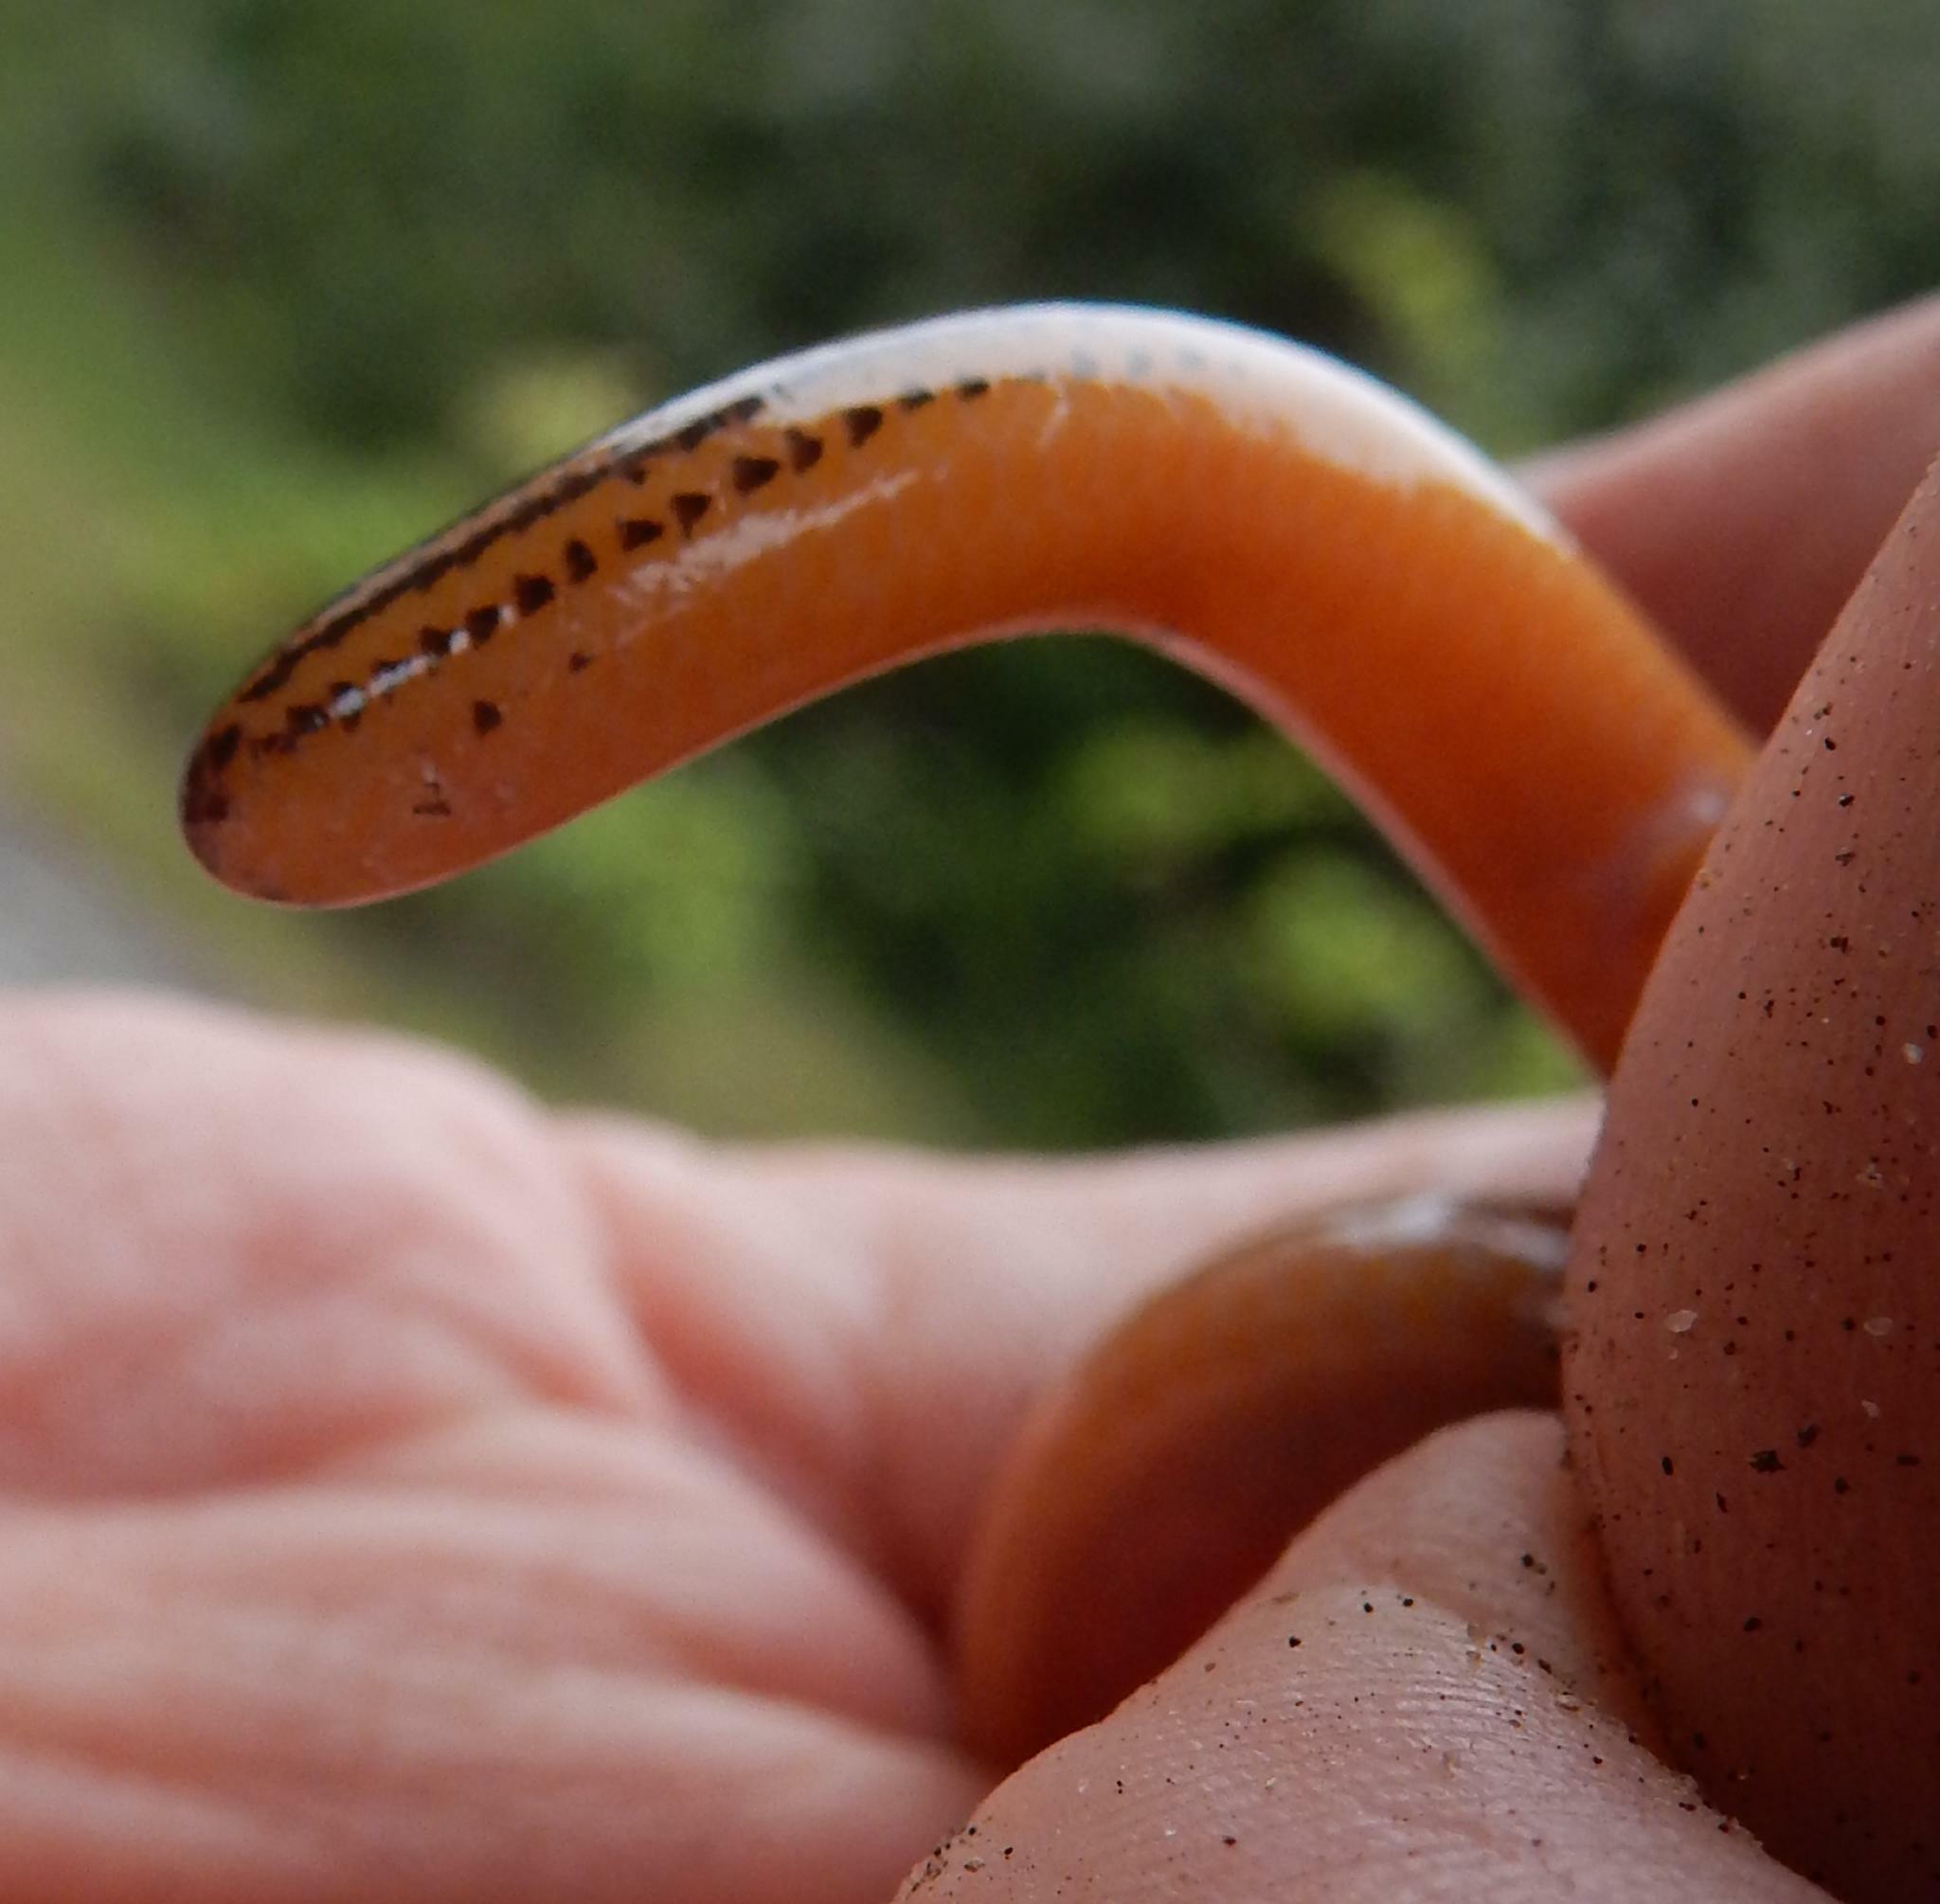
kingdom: Animalia
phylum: Chordata
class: Squamata
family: Scincidae
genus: Acontias
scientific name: Acontias orientalis
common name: Eastern cape legless skink
